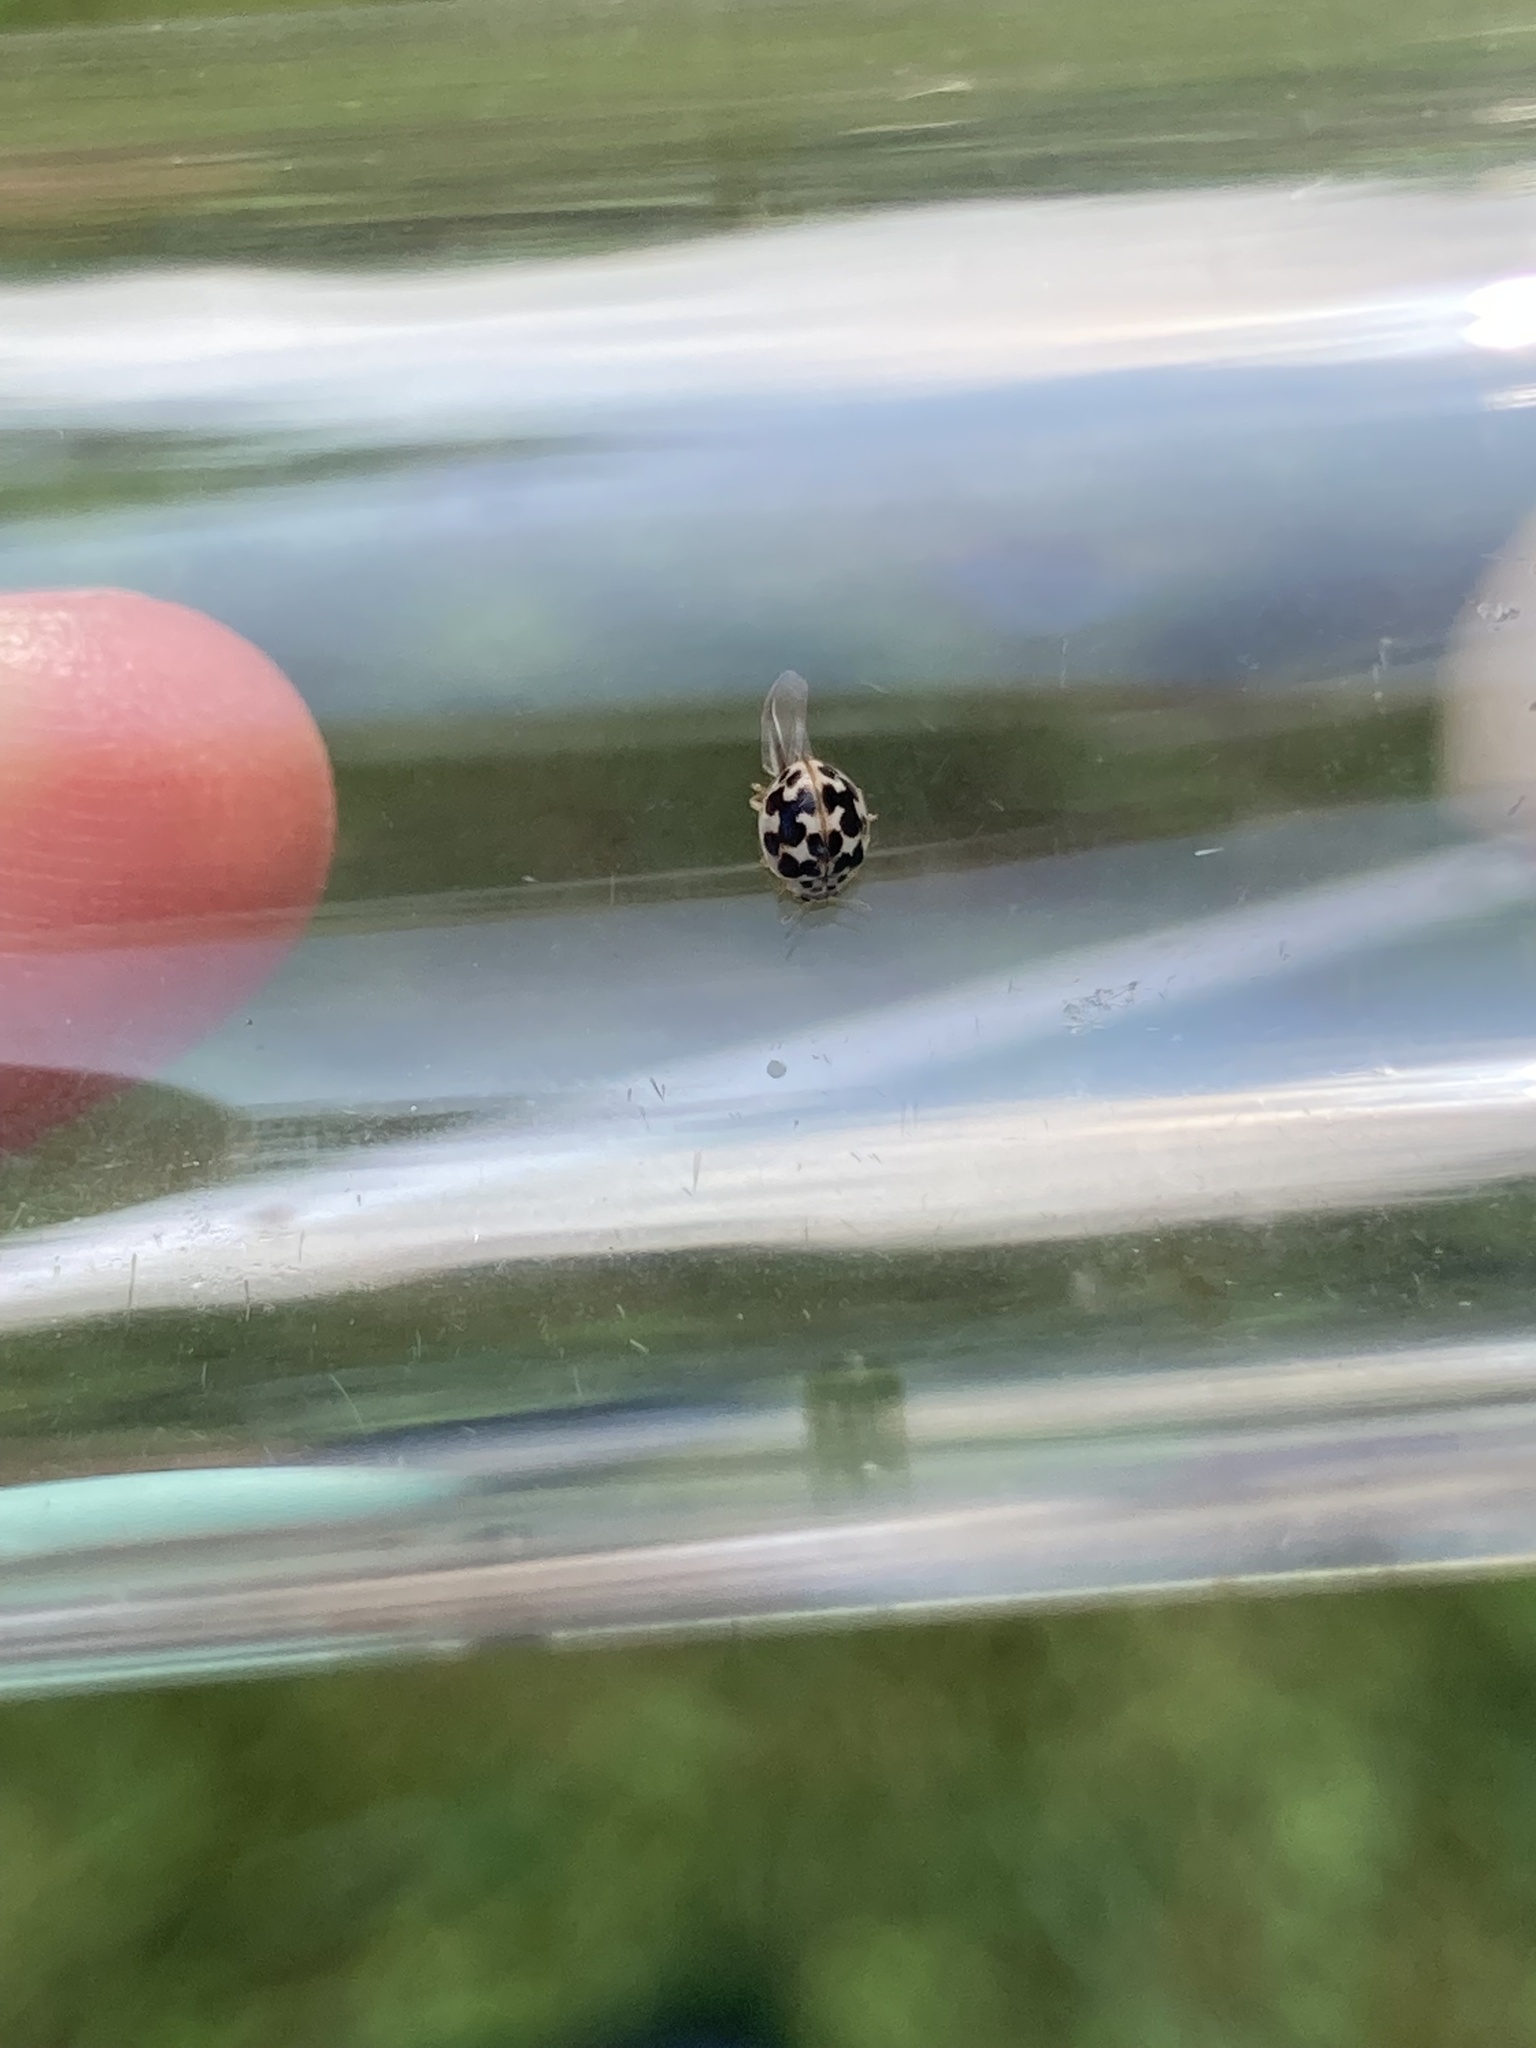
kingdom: Animalia
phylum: Arthropoda
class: Insecta
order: Coleoptera
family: Coccinellidae
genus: Psyllobora
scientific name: Psyllobora vigintimaculata
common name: Ladybird beetle
